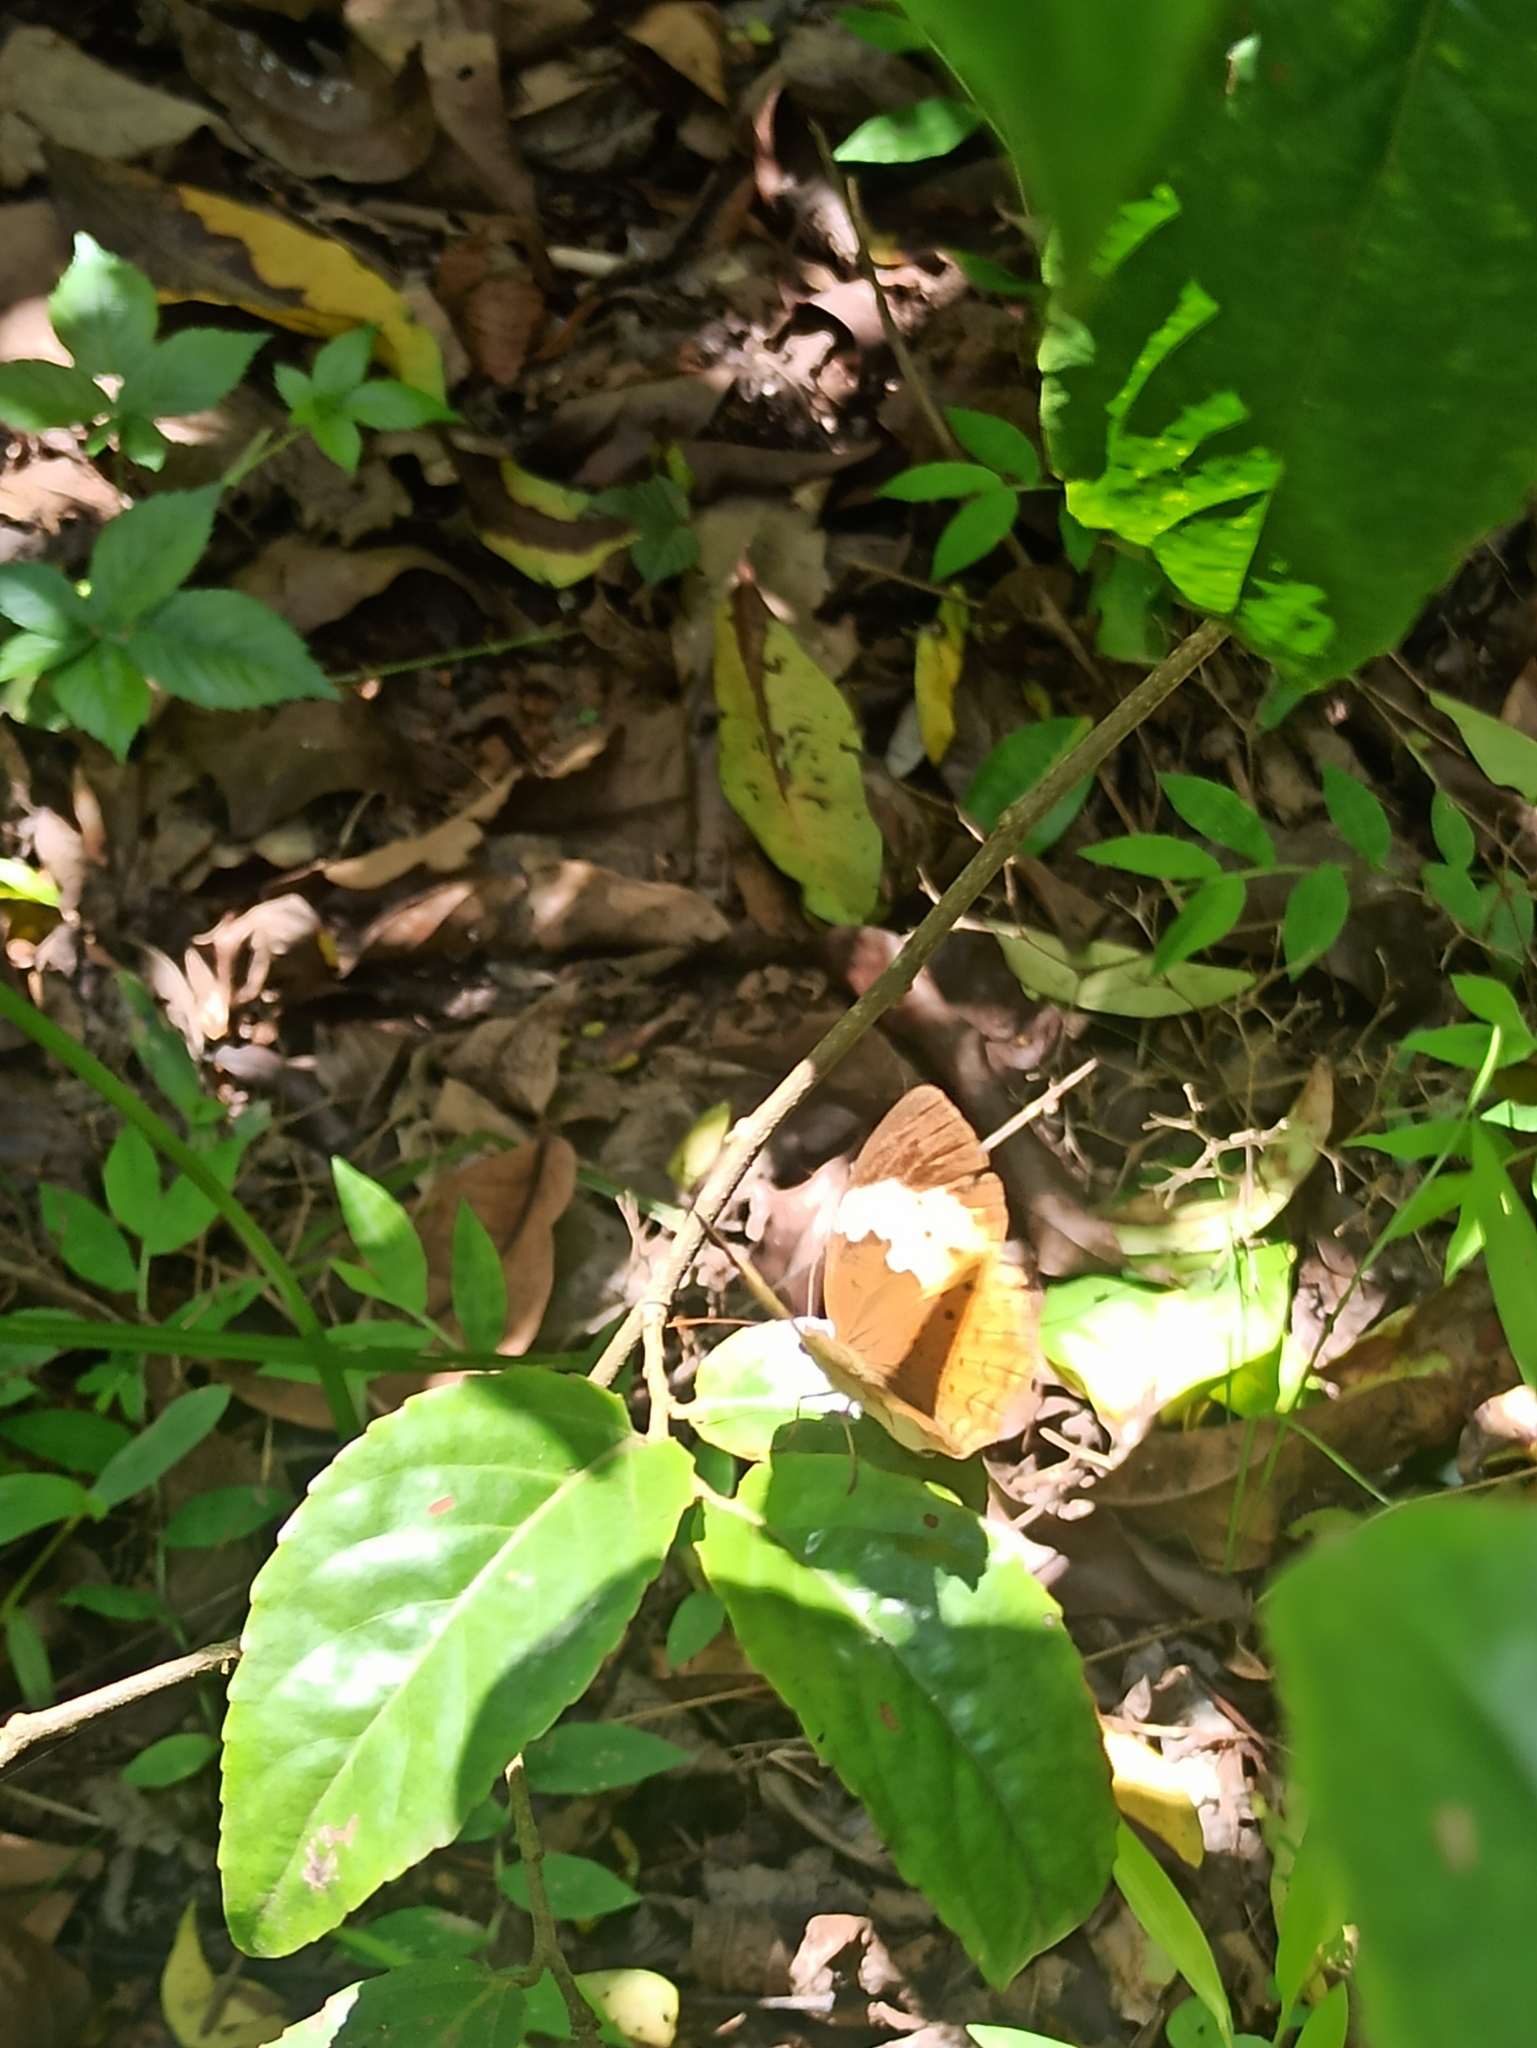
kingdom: Animalia
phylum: Arthropoda
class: Insecta
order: Lepidoptera
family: Nymphalidae
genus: Cupha
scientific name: Cupha erymanthis
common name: Rustic
